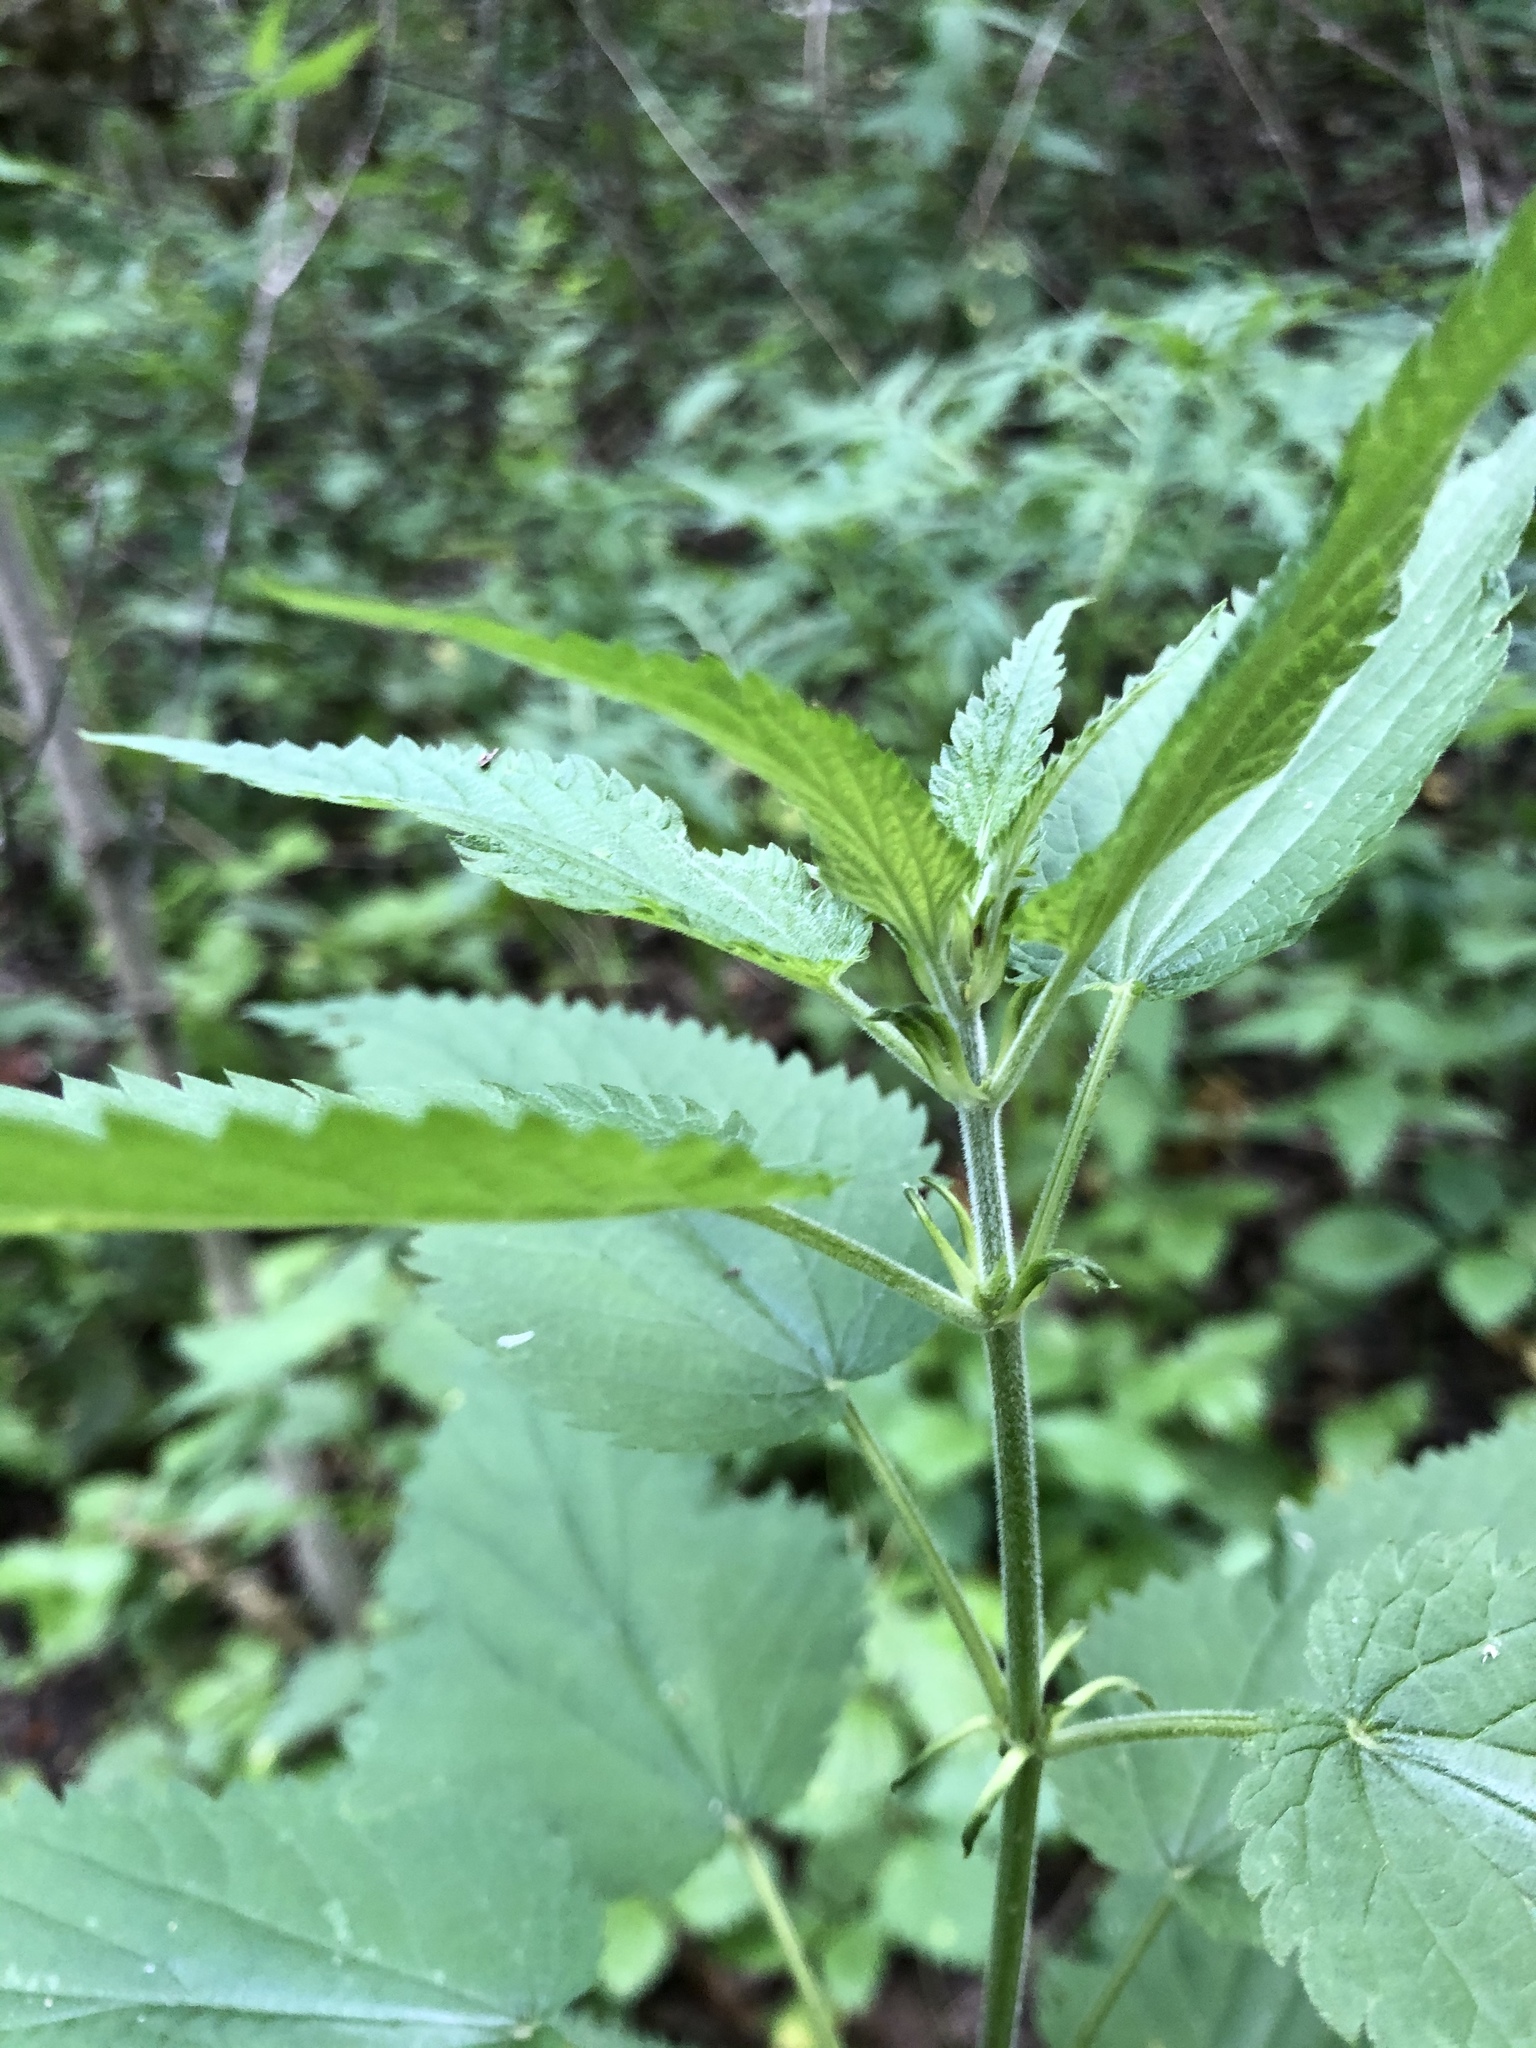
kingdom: Plantae
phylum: Tracheophyta
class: Magnoliopsida
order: Rosales
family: Urticaceae
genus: Urtica
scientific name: Urtica galeopsifolia
